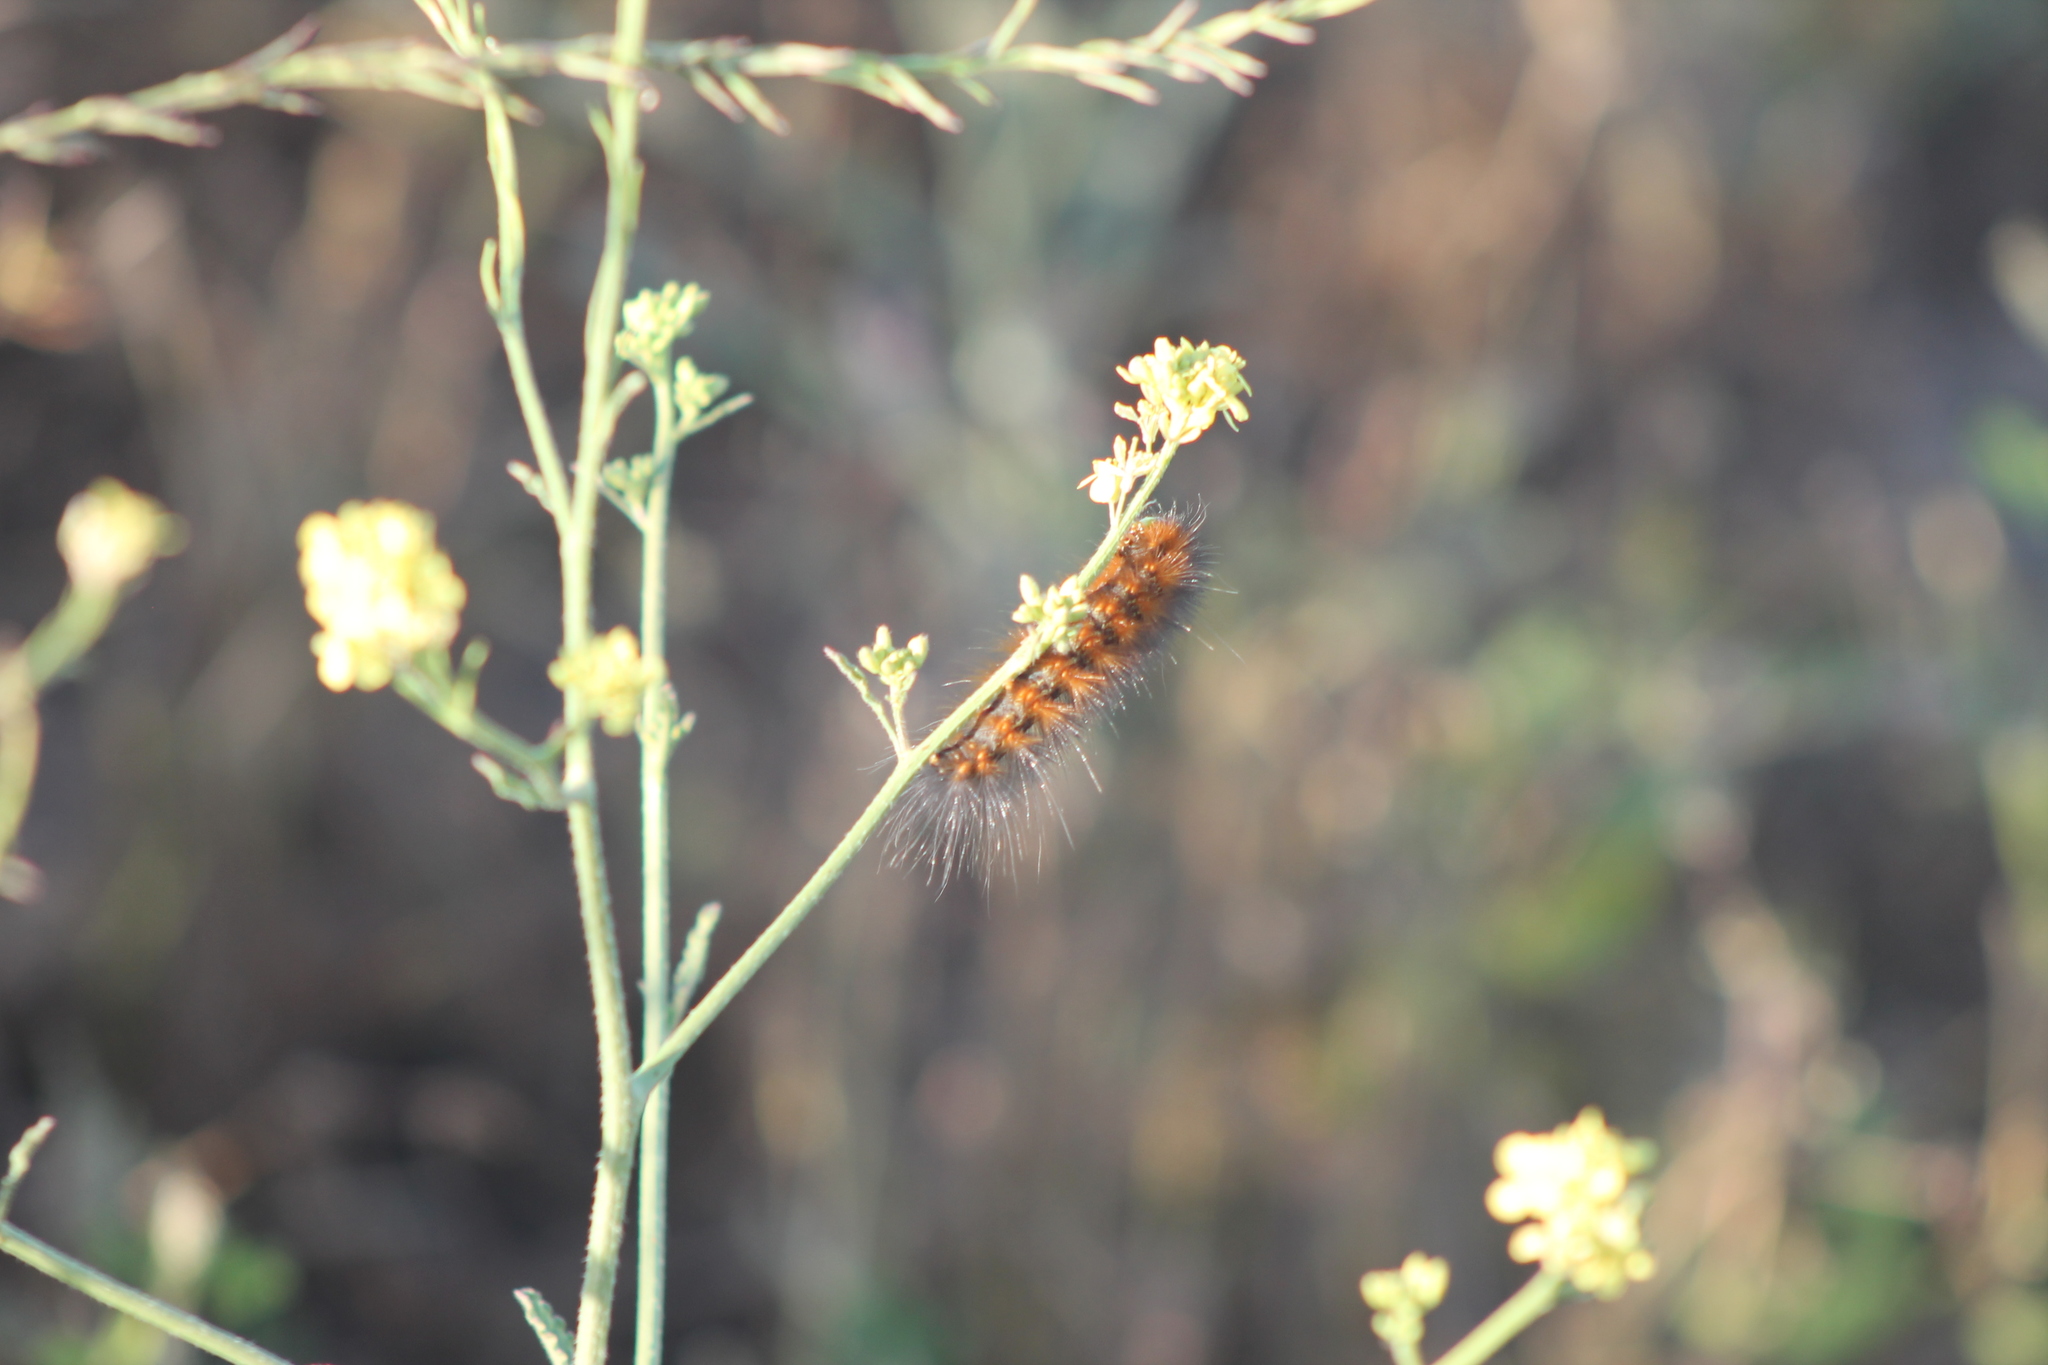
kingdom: Animalia
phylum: Arthropoda
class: Insecta
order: Lepidoptera
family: Erebidae
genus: Estigmene
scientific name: Estigmene acrea
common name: Salt marsh moth
